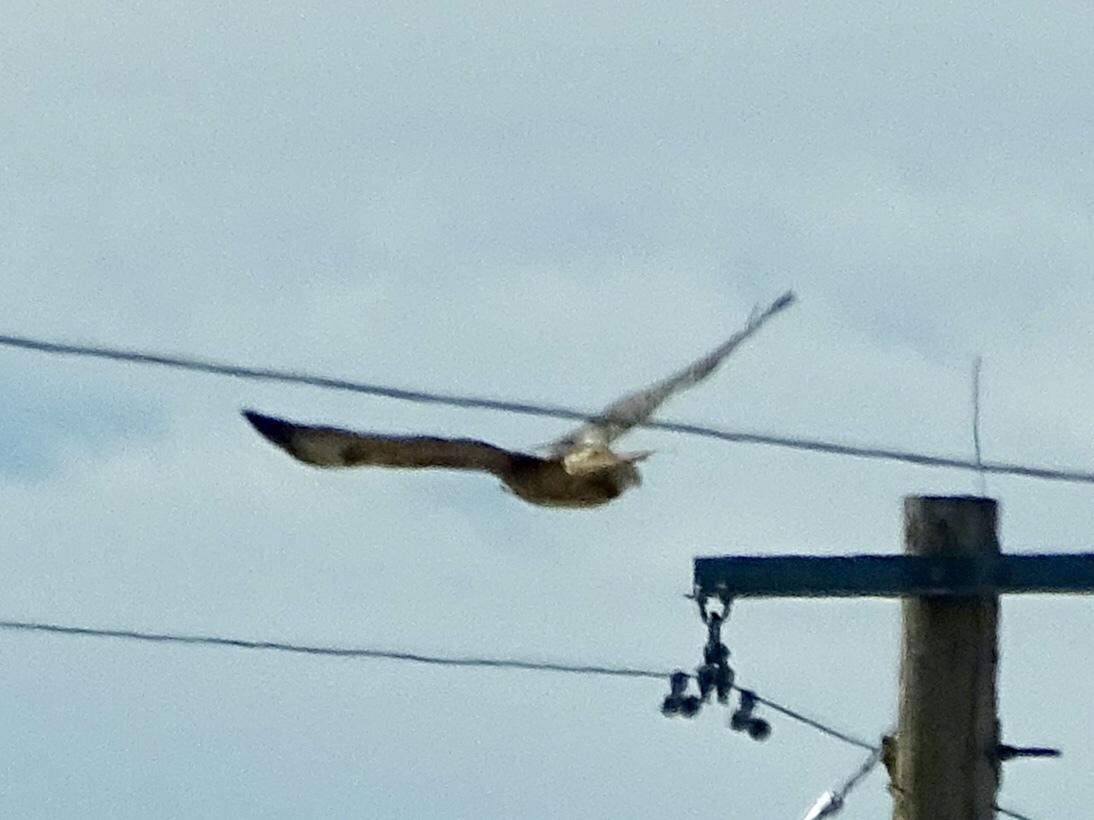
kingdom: Animalia
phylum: Chordata
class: Aves
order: Accipitriformes
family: Accipitridae
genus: Buteo
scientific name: Buteo jamaicensis
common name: Red-tailed hawk
